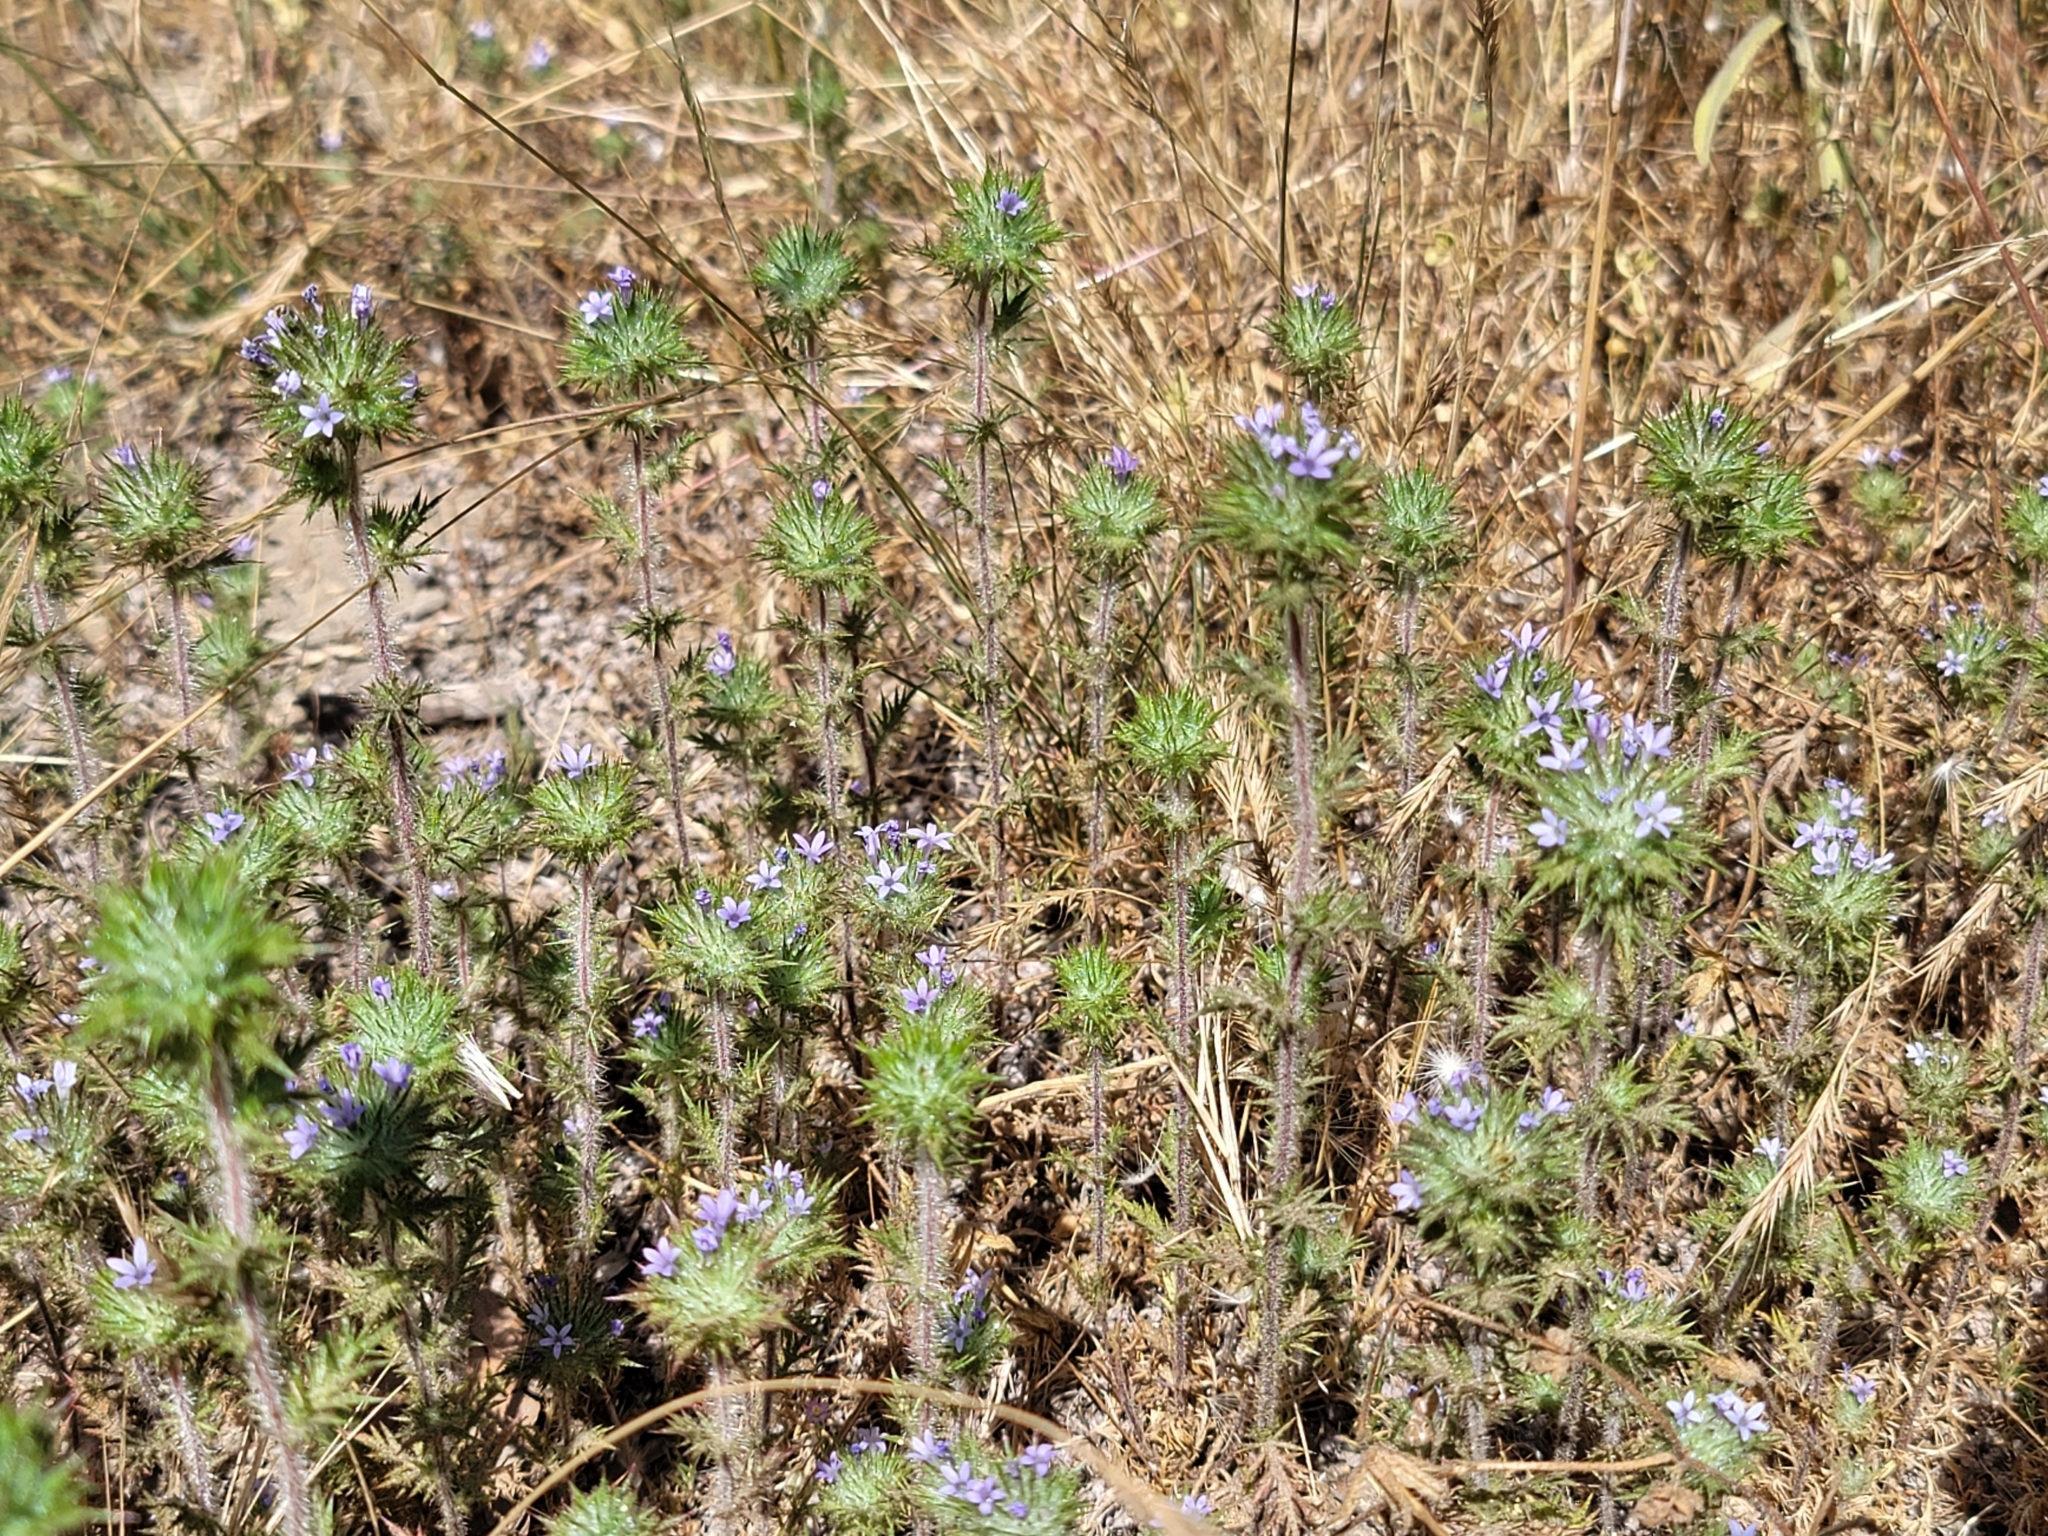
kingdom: Plantae
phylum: Tracheophyta
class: Magnoliopsida
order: Ericales
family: Polemoniaceae
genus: Navarretia
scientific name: Navarretia squarrosa
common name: Skunkweed
